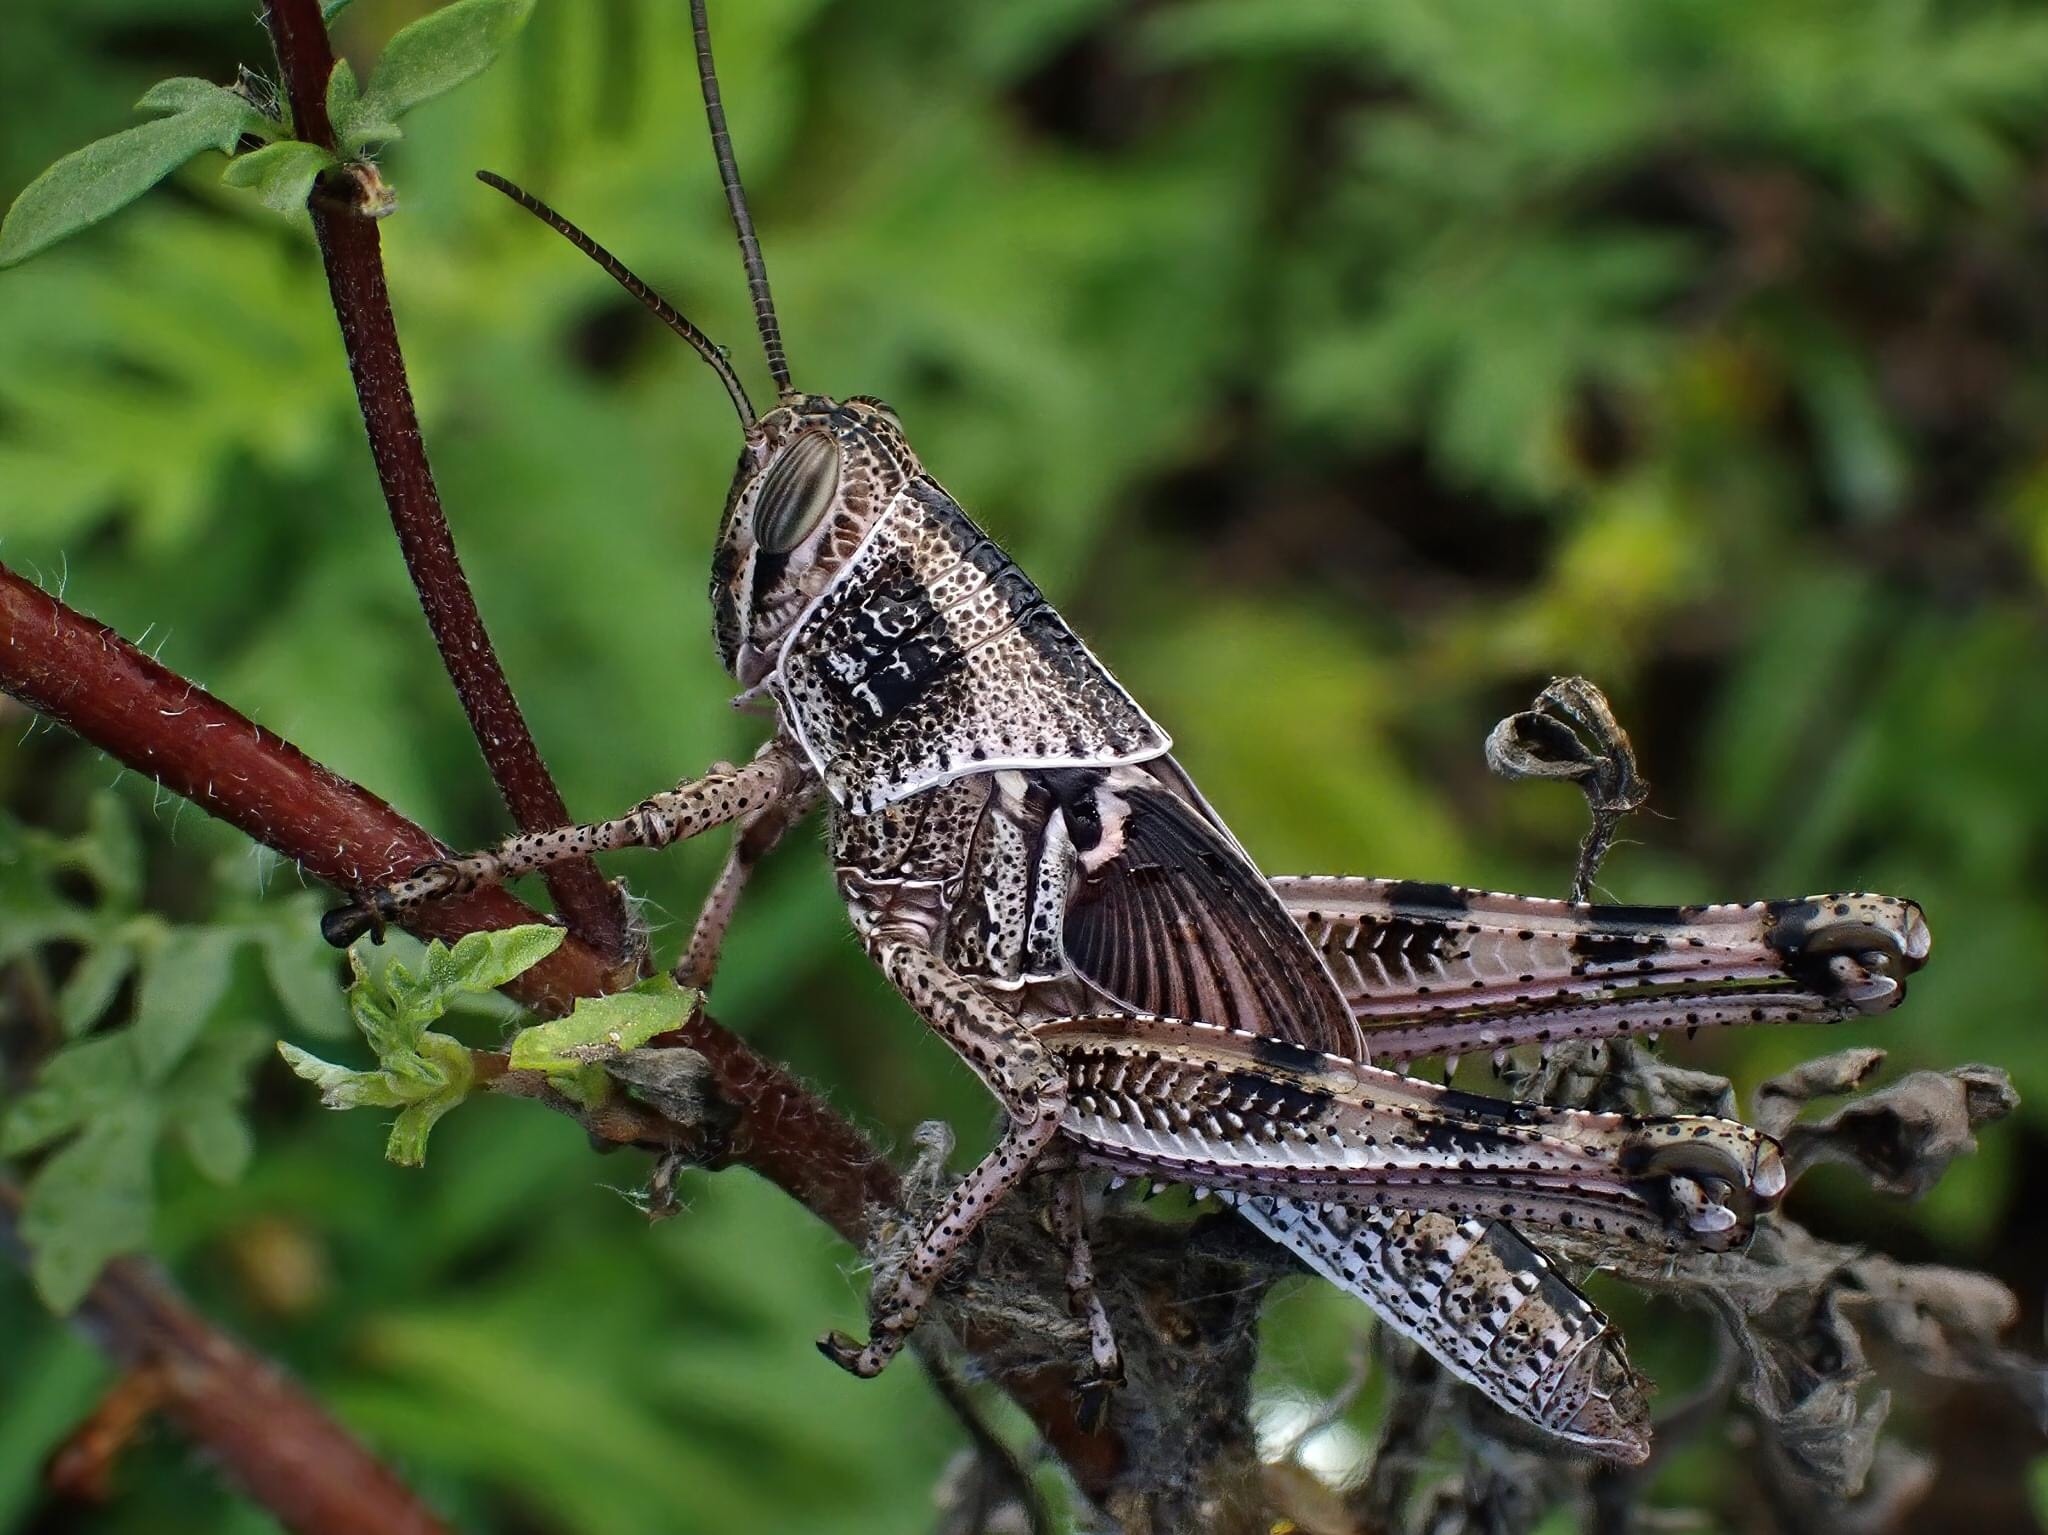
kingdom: Animalia
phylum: Arthropoda
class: Insecta
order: Orthoptera
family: Acrididae
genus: Schistocerca
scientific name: Schistocerca serialis
